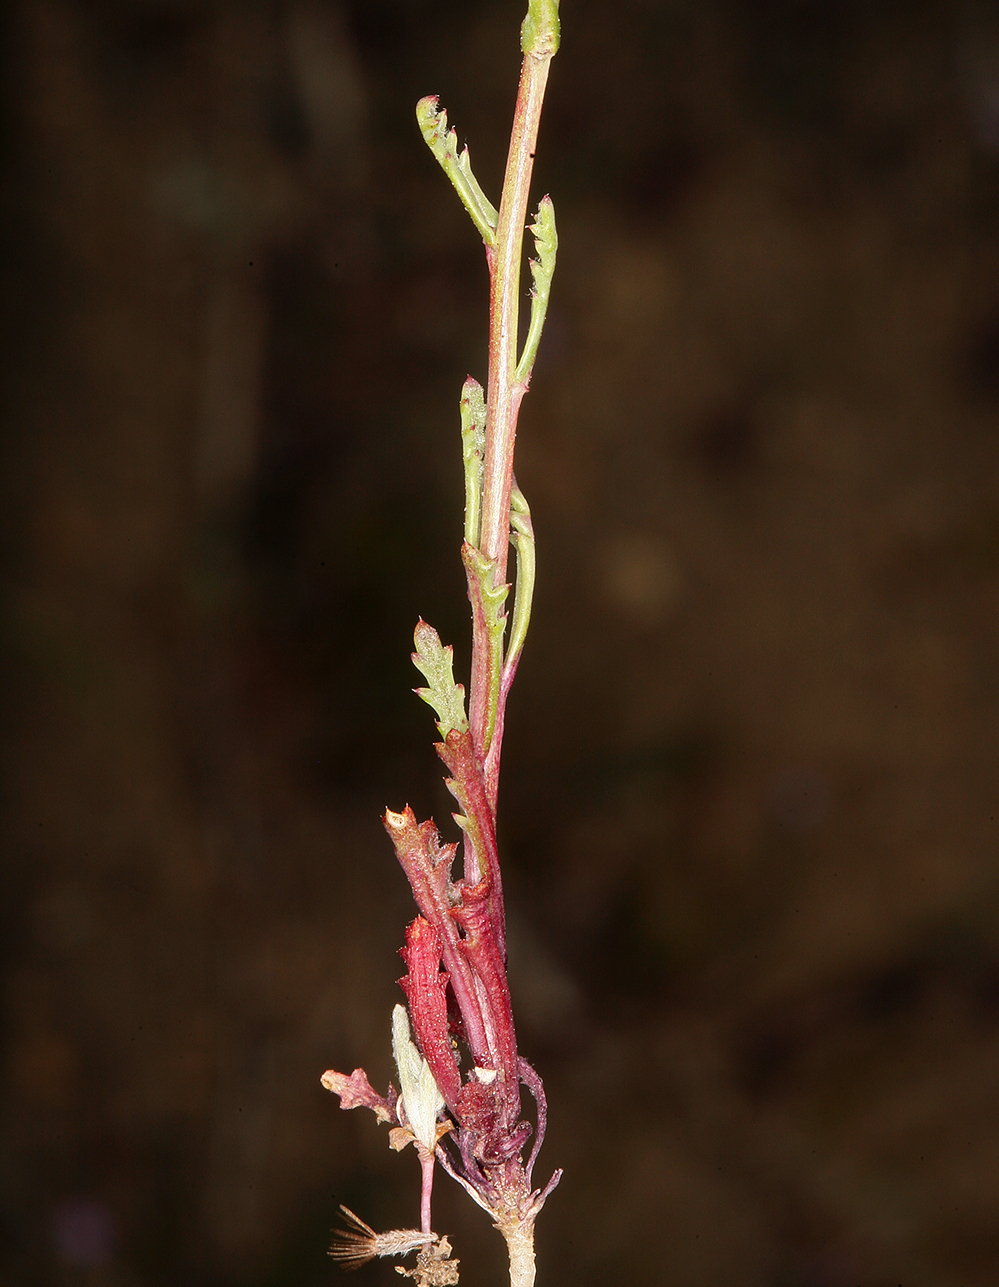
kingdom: Plantae
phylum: Tracheophyta
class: Magnoliopsida
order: Ericales
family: Polemoniaceae
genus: Gilia
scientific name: Gilia sinuata
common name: Rosy gilia
